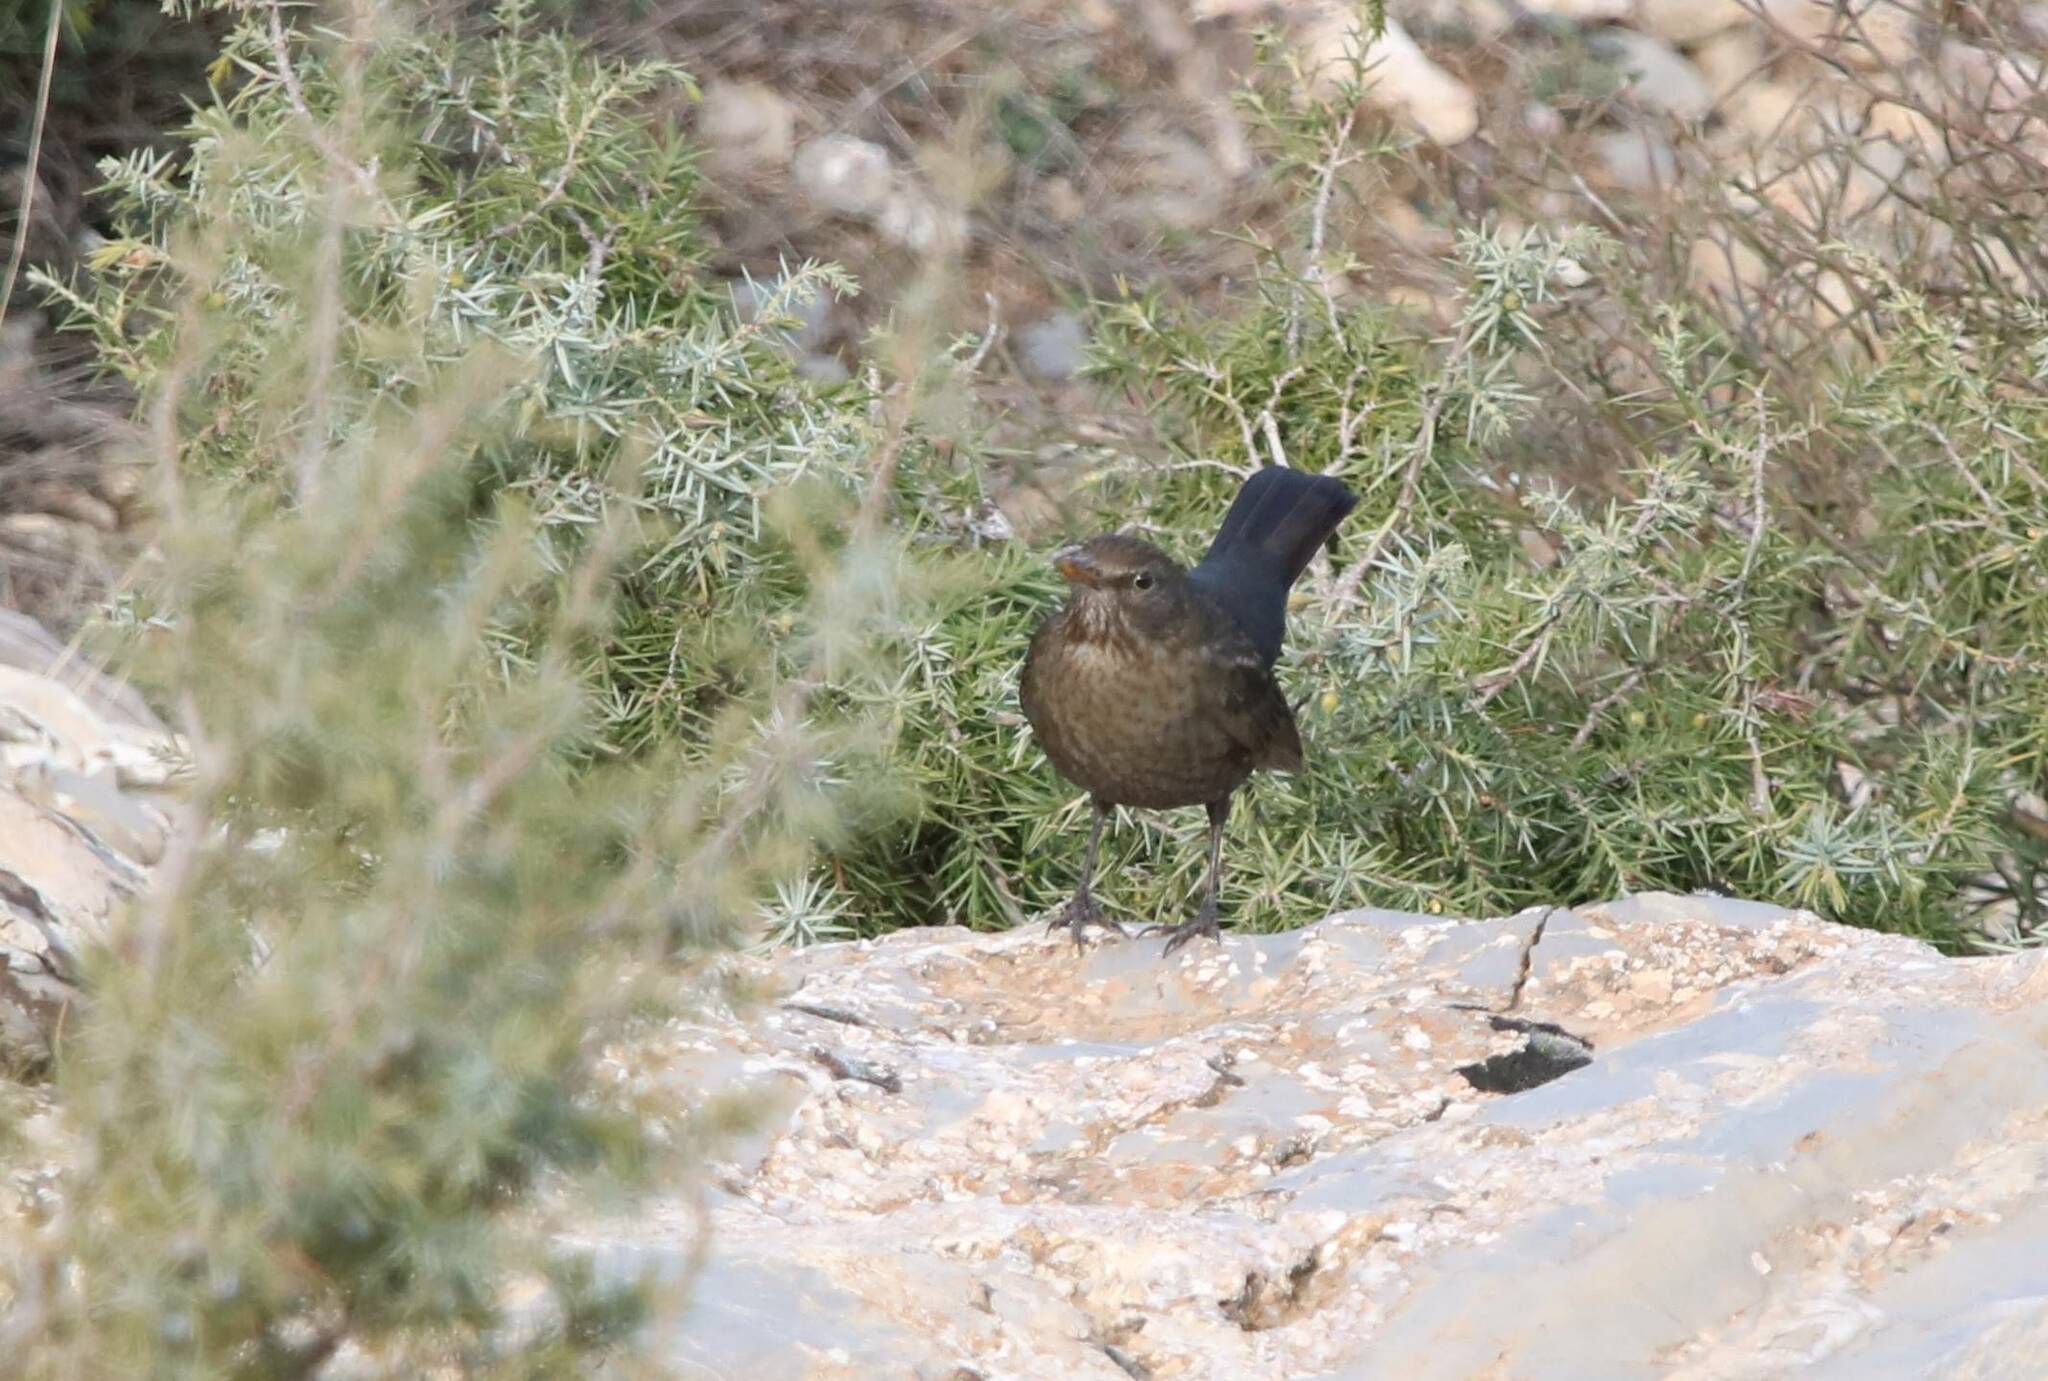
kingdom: Animalia
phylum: Chordata
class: Aves
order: Passeriformes
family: Turdidae
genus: Turdus
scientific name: Turdus merula
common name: Common blackbird
